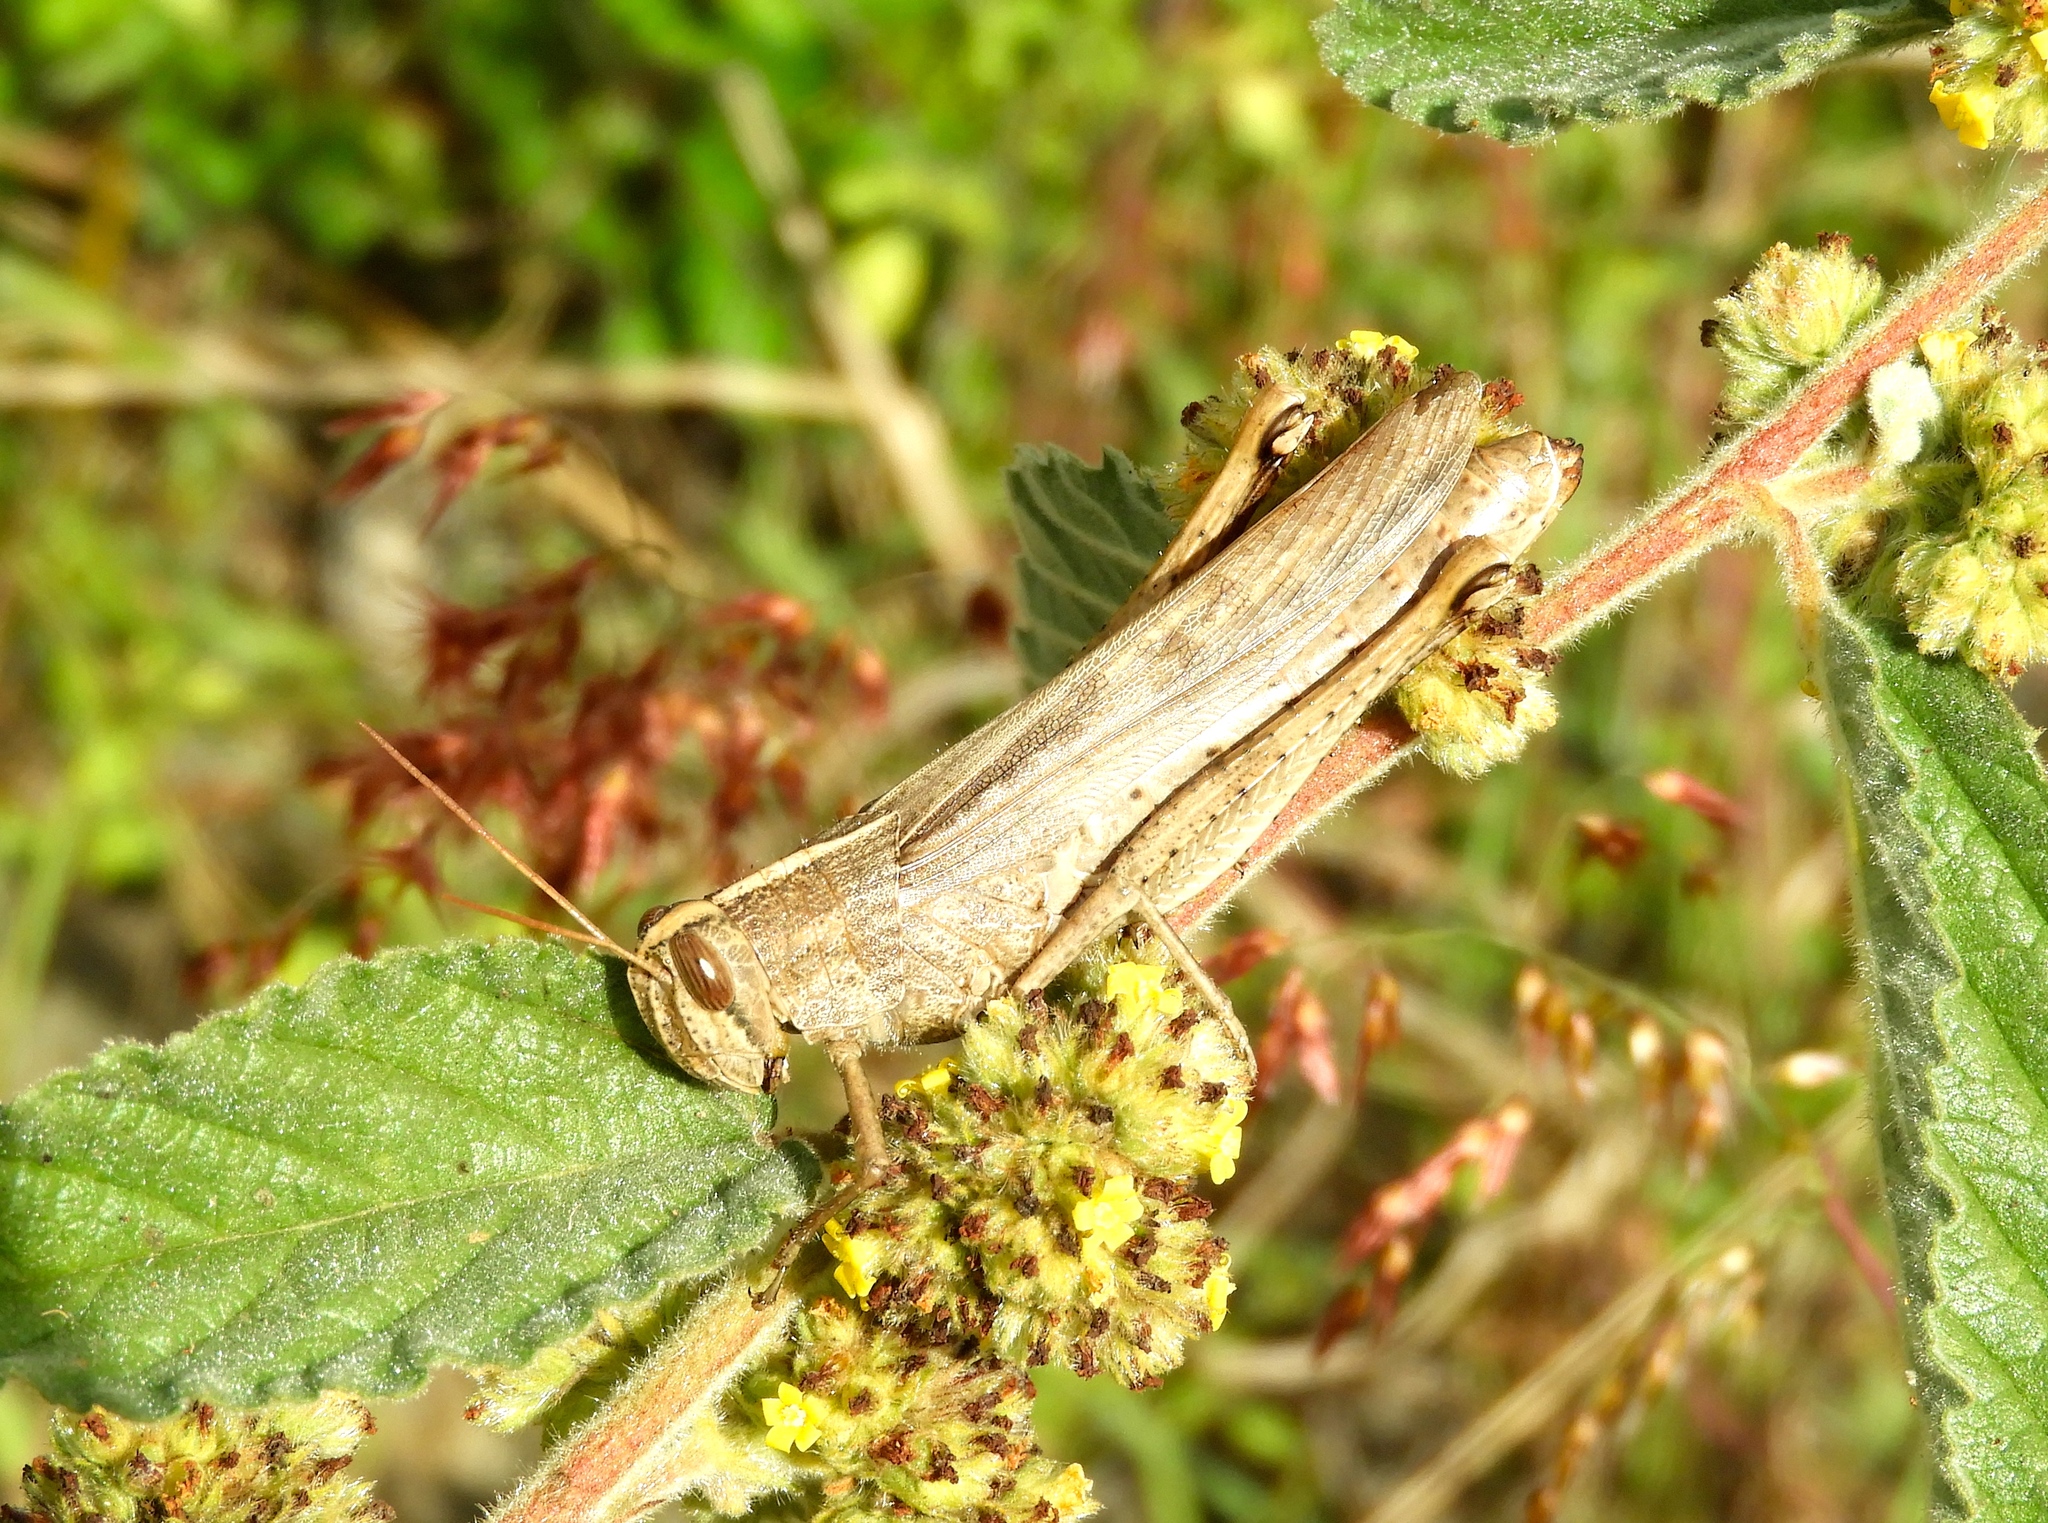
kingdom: Animalia
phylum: Arthropoda
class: Insecta
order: Orthoptera
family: Acrididae
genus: Schistocerca
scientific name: Schistocerca camerata
